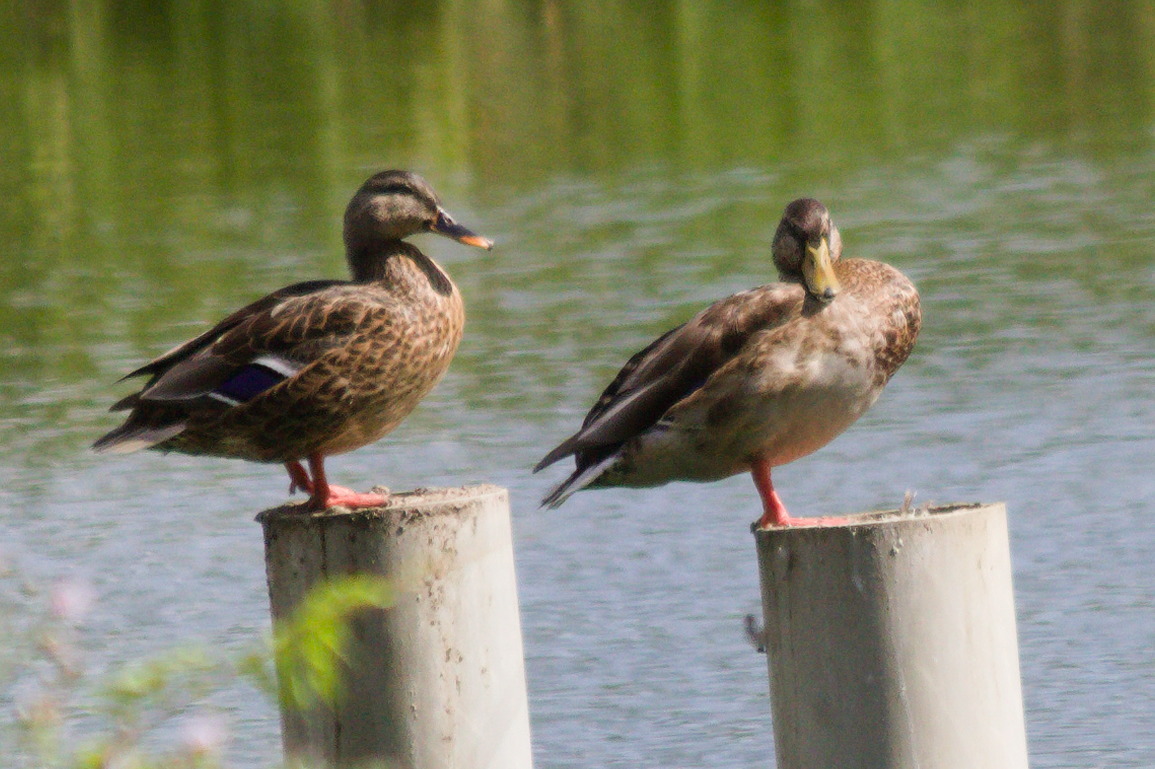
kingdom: Animalia
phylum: Chordata
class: Aves
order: Anseriformes
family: Anatidae
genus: Anas
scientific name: Anas platyrhynchos
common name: Mallard
